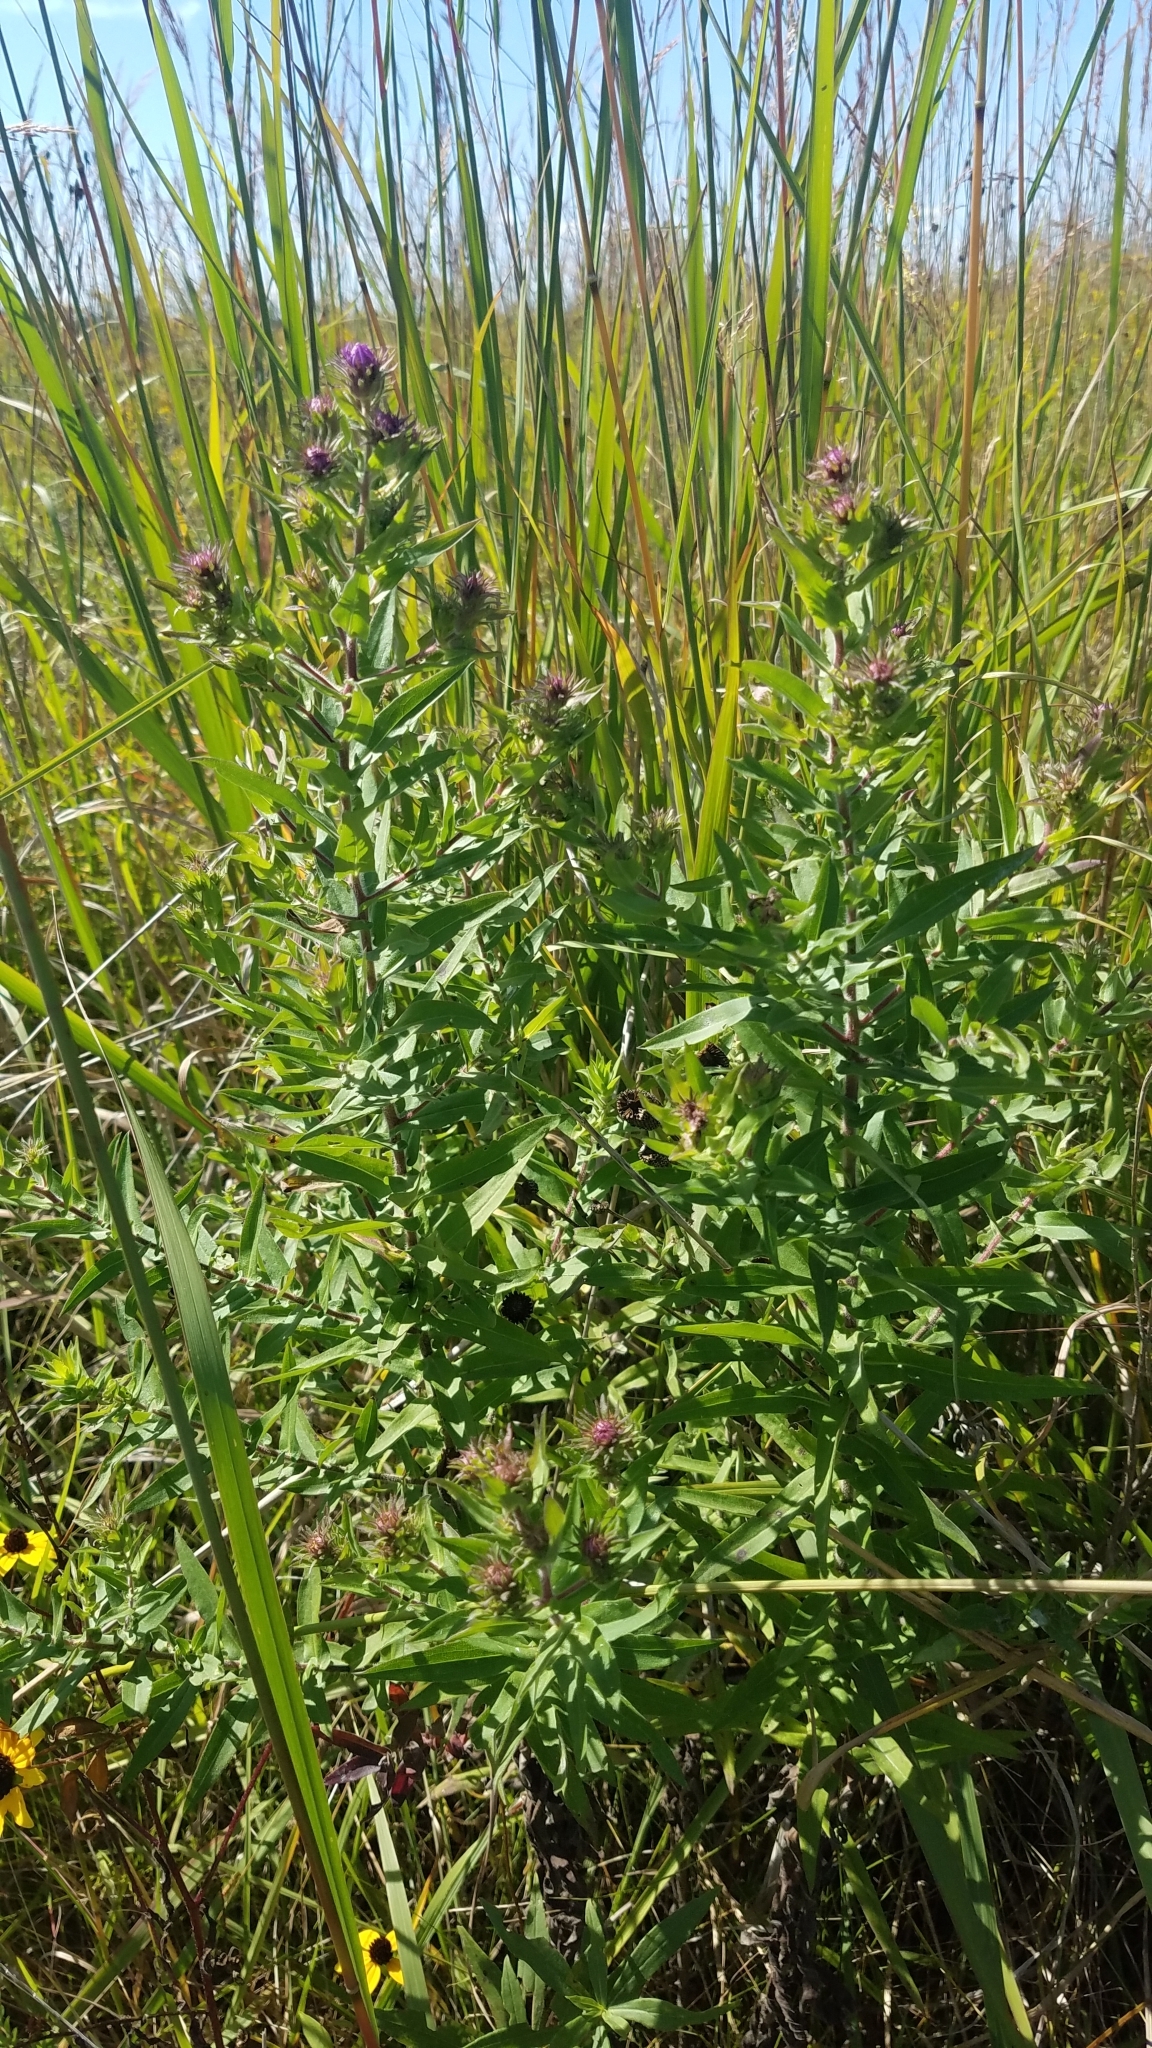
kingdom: Plantae
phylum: Tracheophyta
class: Magnoliopsida
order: Asterales
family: Asteraceae
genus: Symphyotrichum
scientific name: Symphyotrichum novae-angliae
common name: Michaelmas daisy
